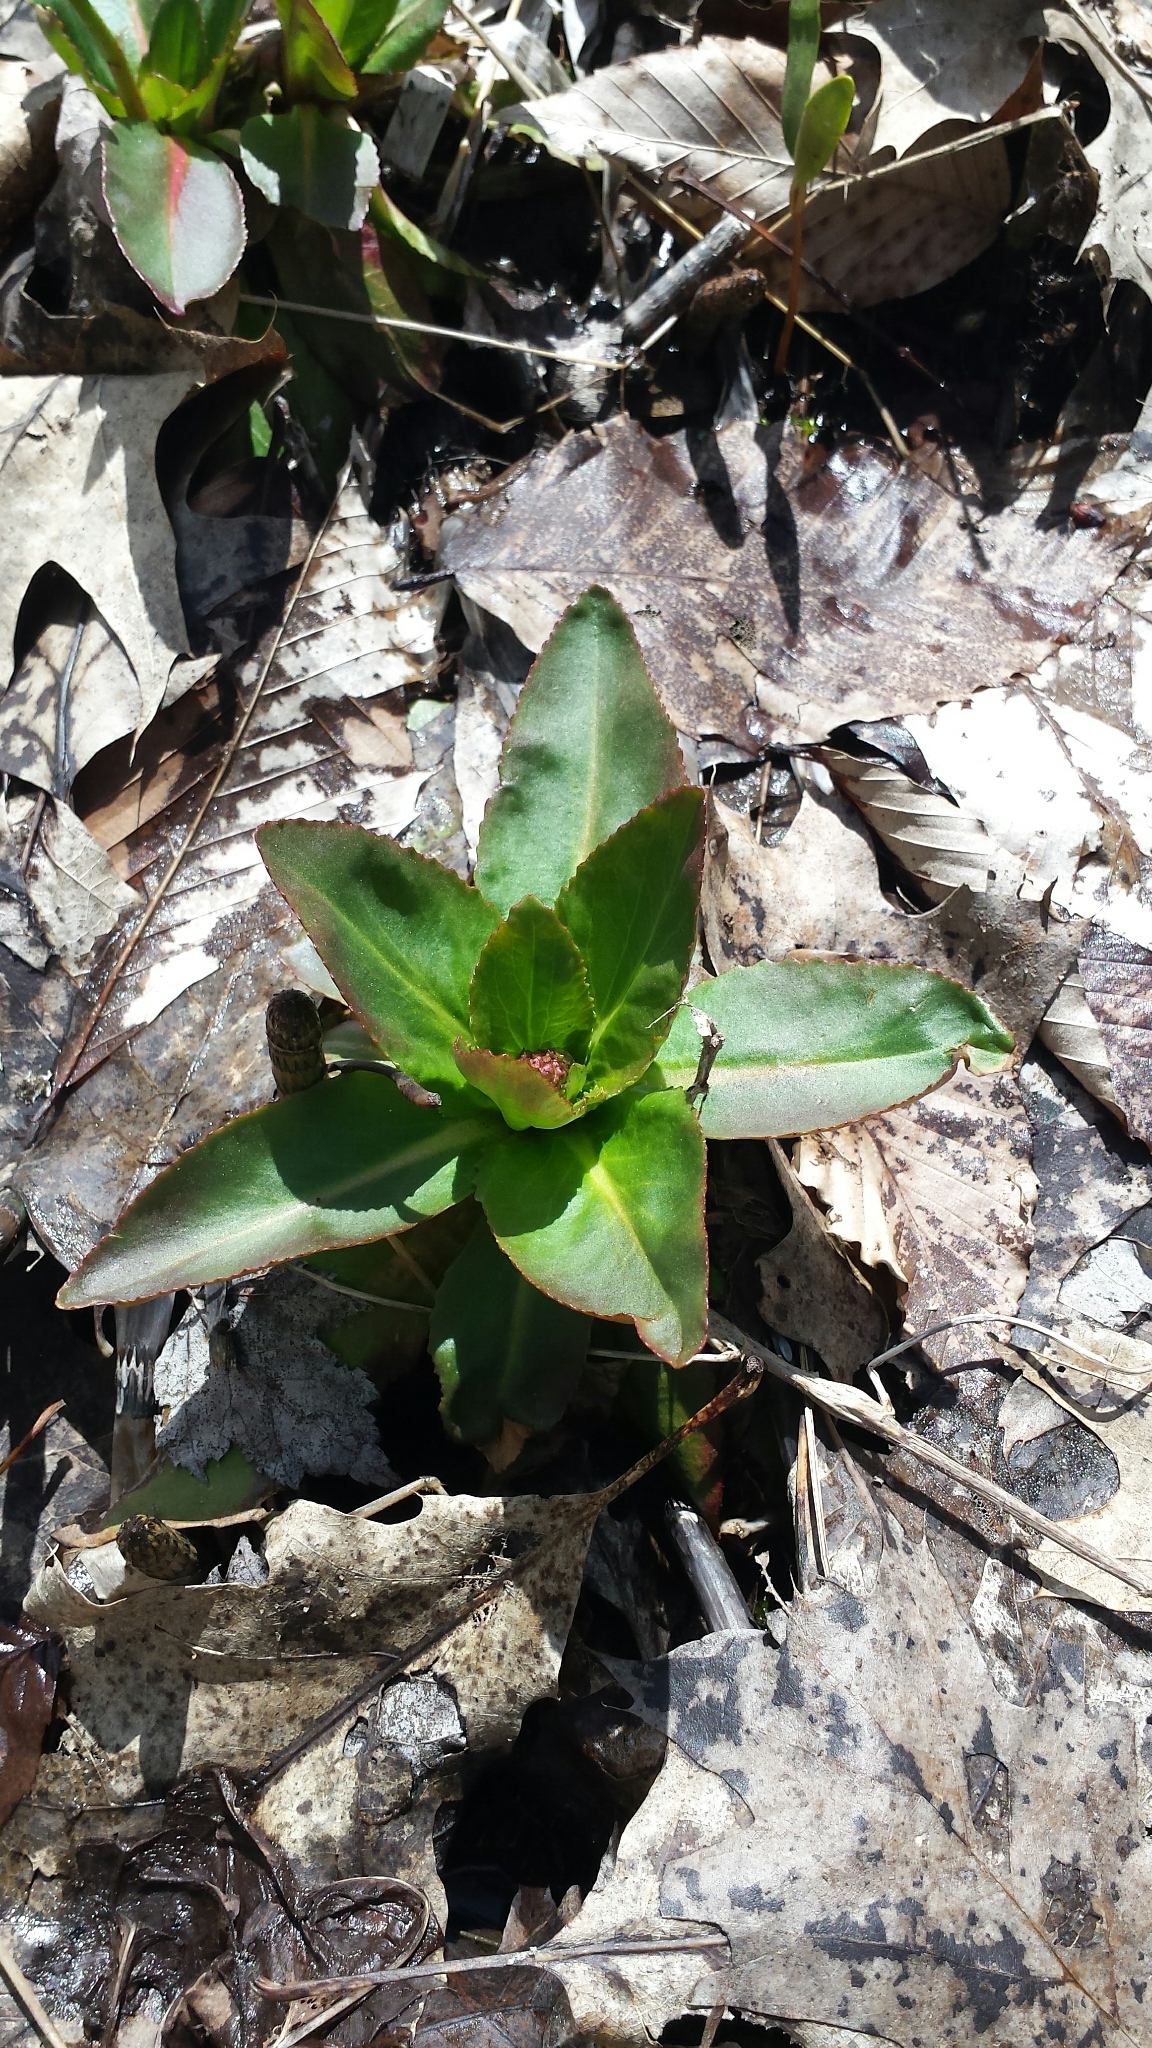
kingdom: Plantae
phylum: Tracheophyta
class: Magnoliopsida
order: Saxifragales
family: Saxifragaceae
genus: Micranthes
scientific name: Micranthes pensylvanica
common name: Marsh saxifrage
